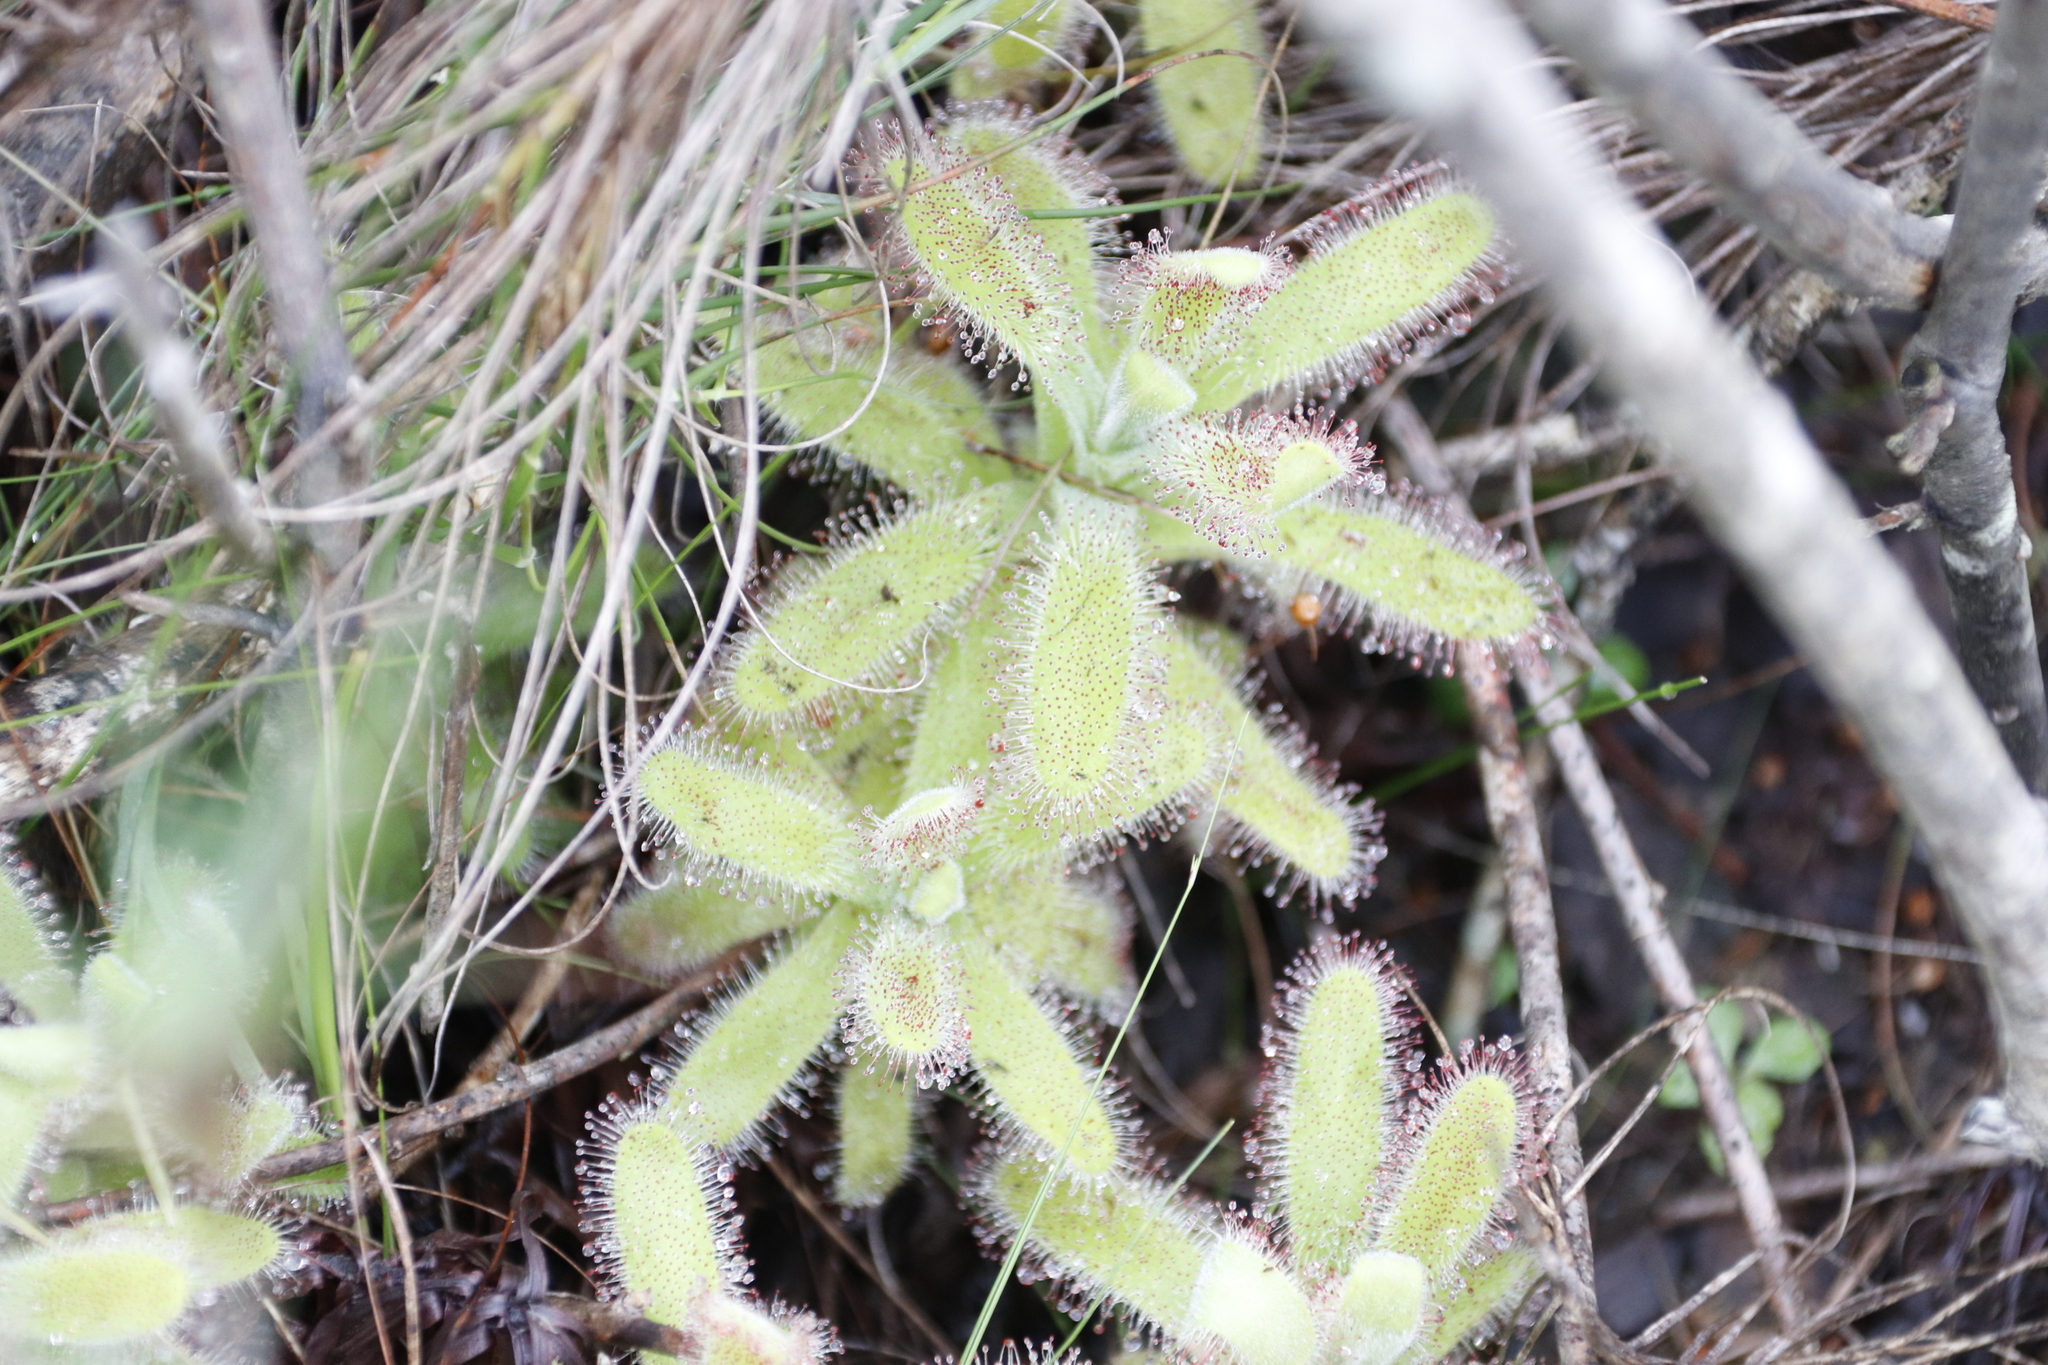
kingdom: Plantae
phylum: Tracheophyta
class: Magnoliopsida
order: Caryophyllales
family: Droseraceae
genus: Drosera
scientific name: Drosera hilaris
